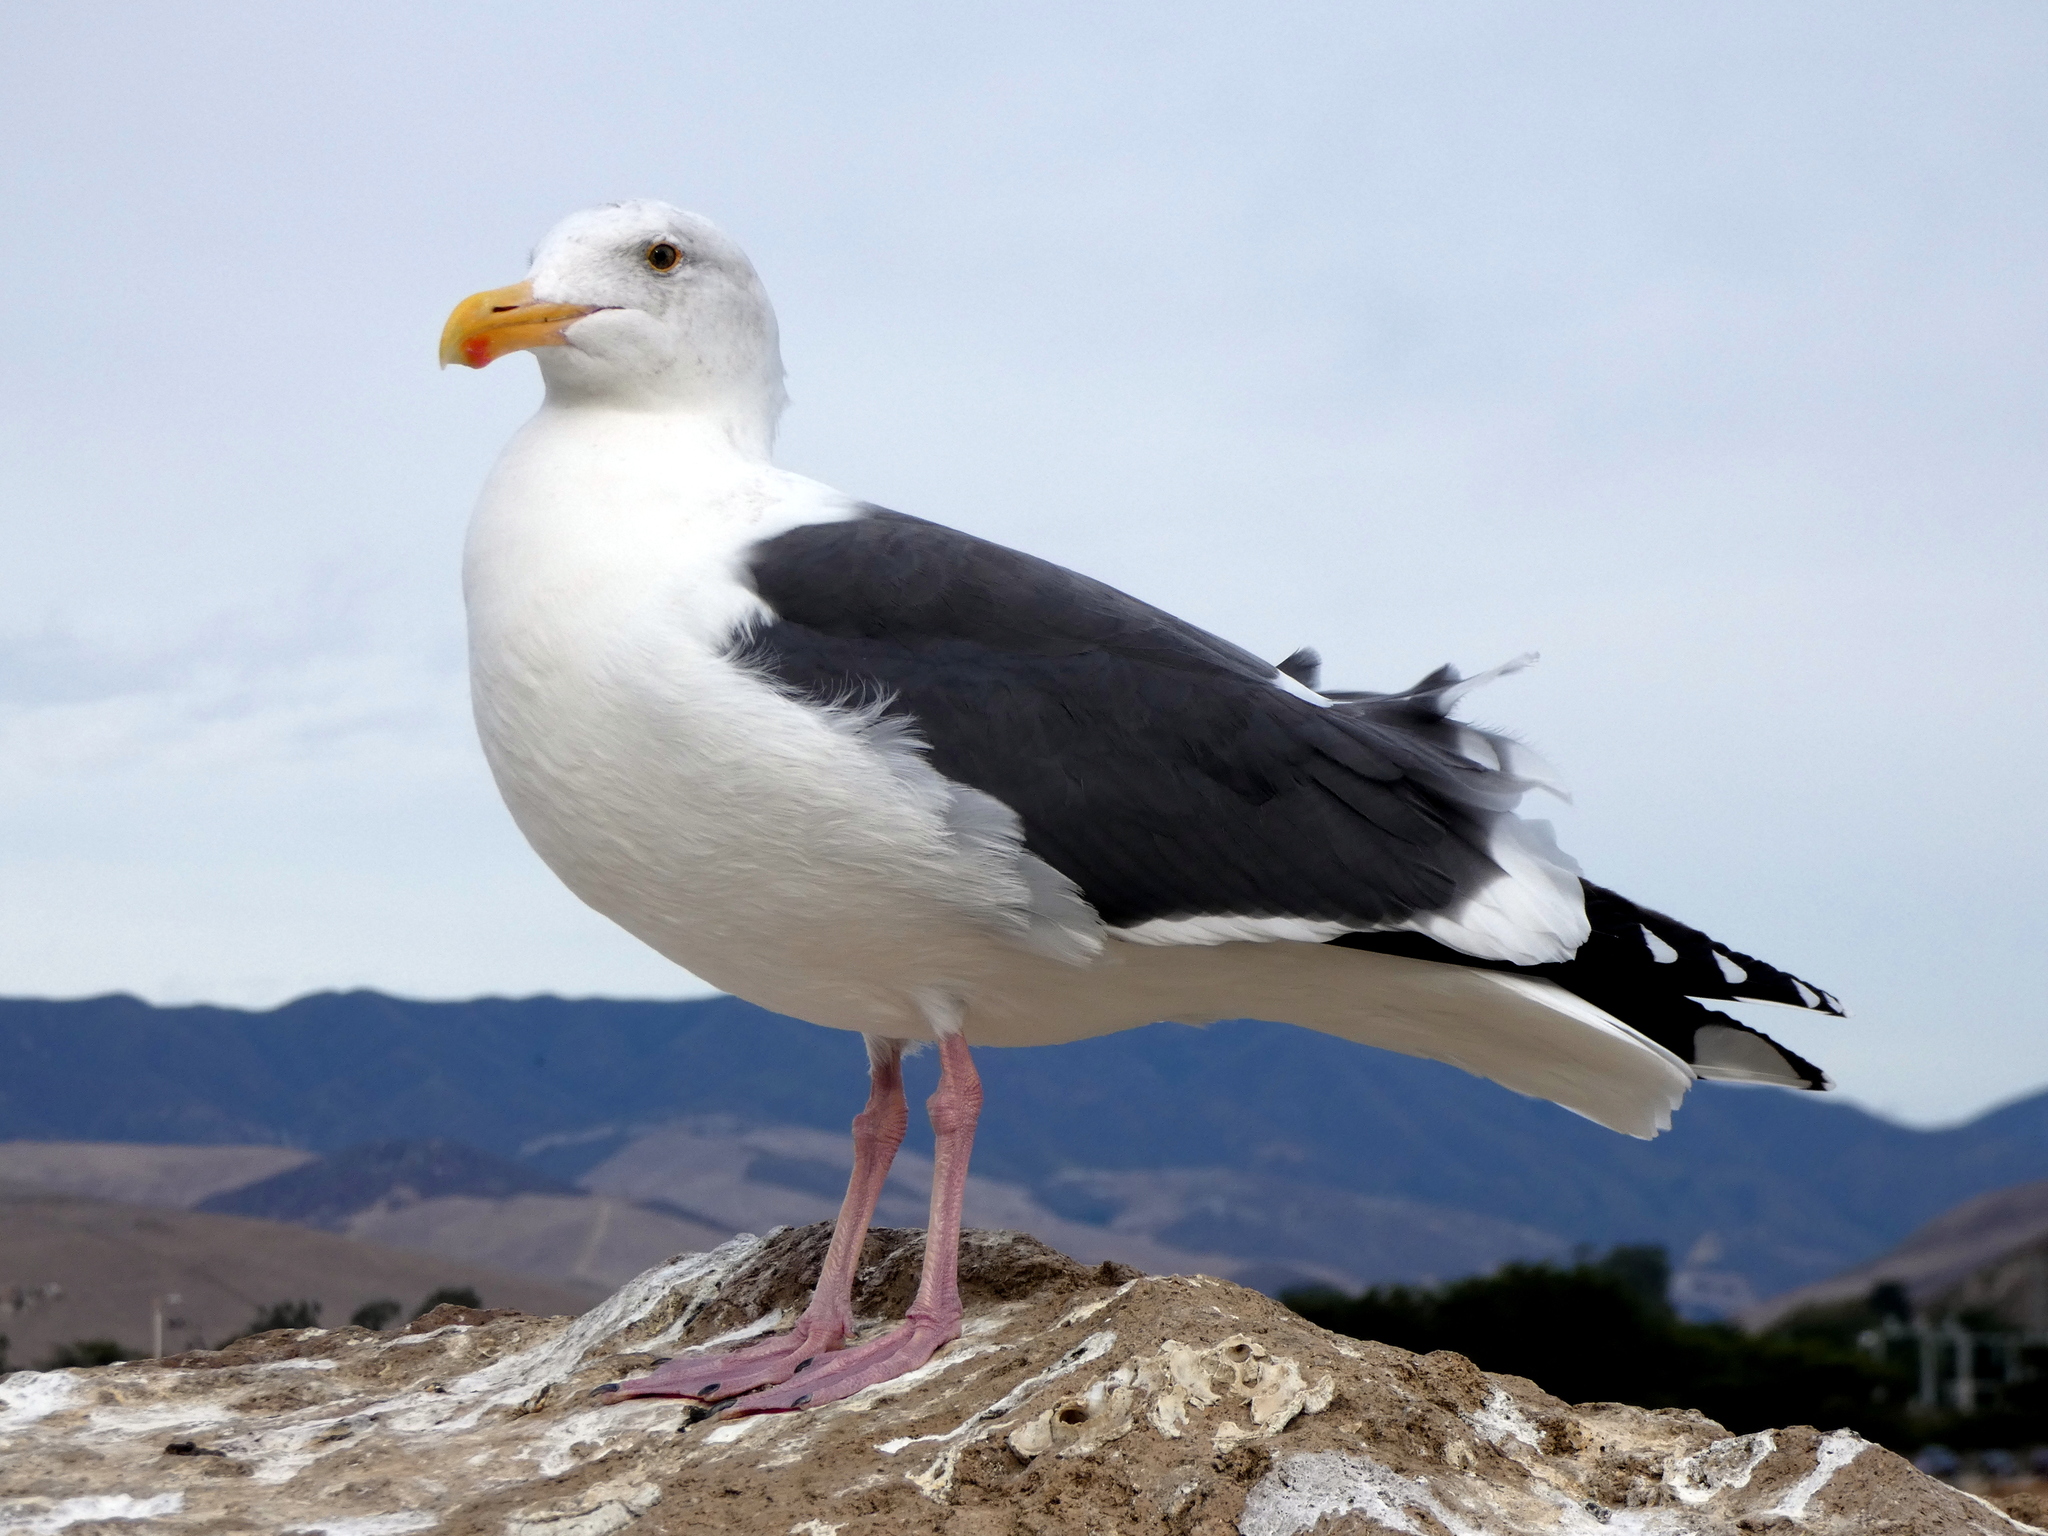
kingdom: Animalia
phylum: Chordata
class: Aves
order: Charadriiformes
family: Laridae
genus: Larus
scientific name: Larus occidentalis
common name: Western gull
